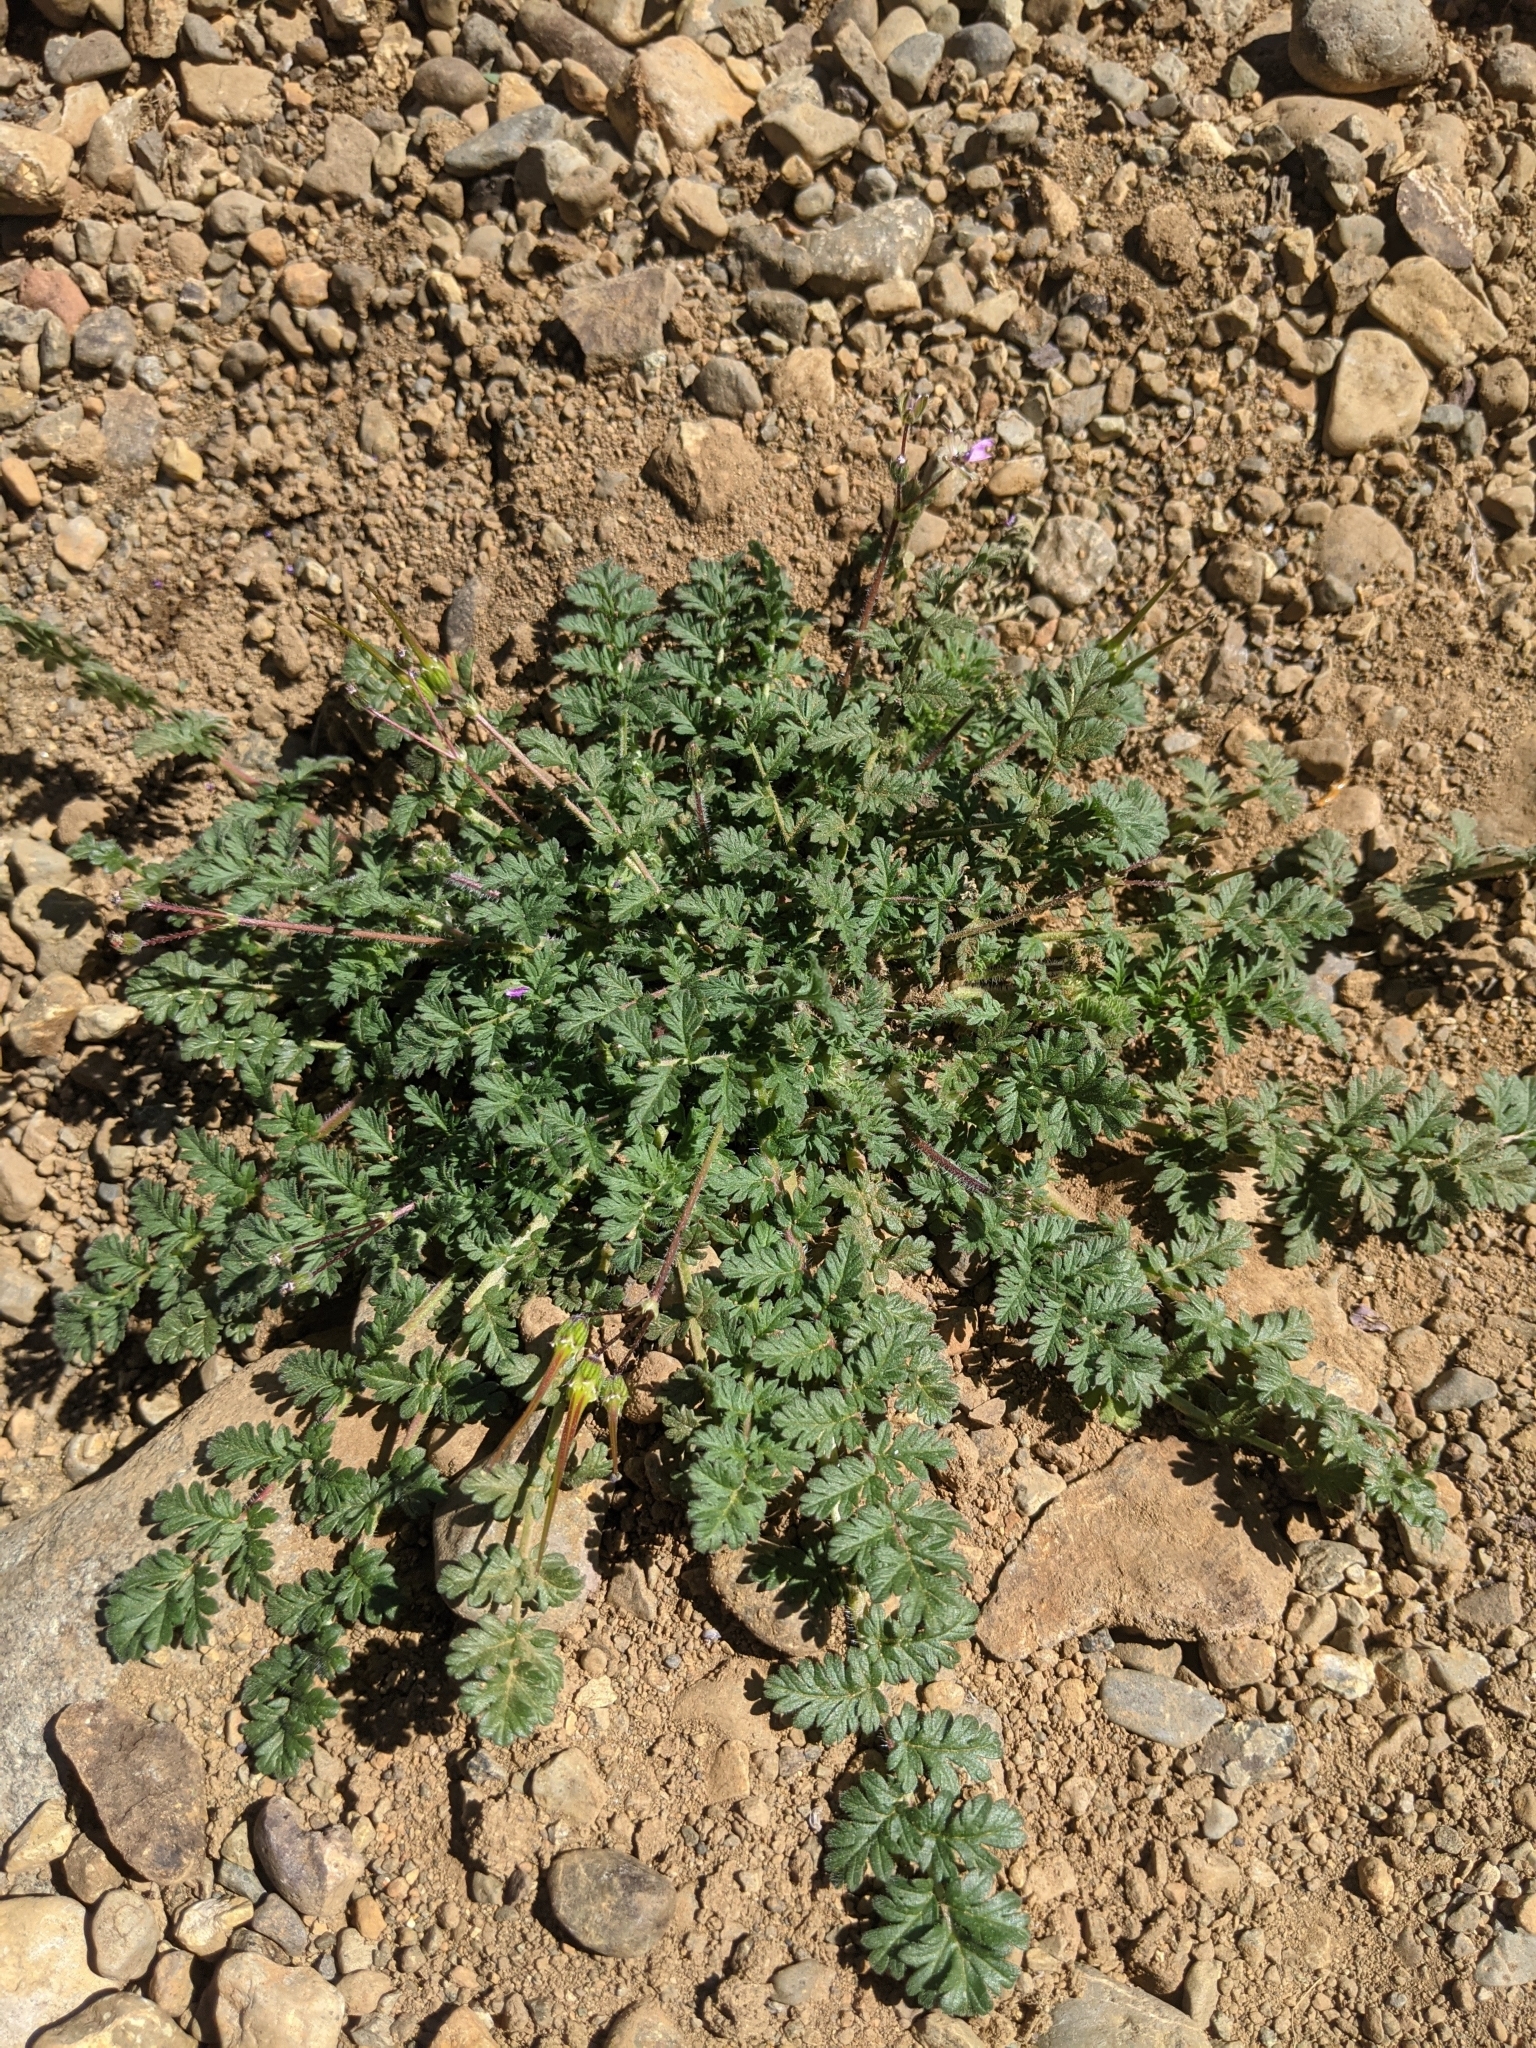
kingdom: Plantae
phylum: Tracheophyta
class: Magnoliopsida
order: Geraniales
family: Geraniaceae
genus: Erodium
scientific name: Erodium cicutarium
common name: Common stork's-bill
